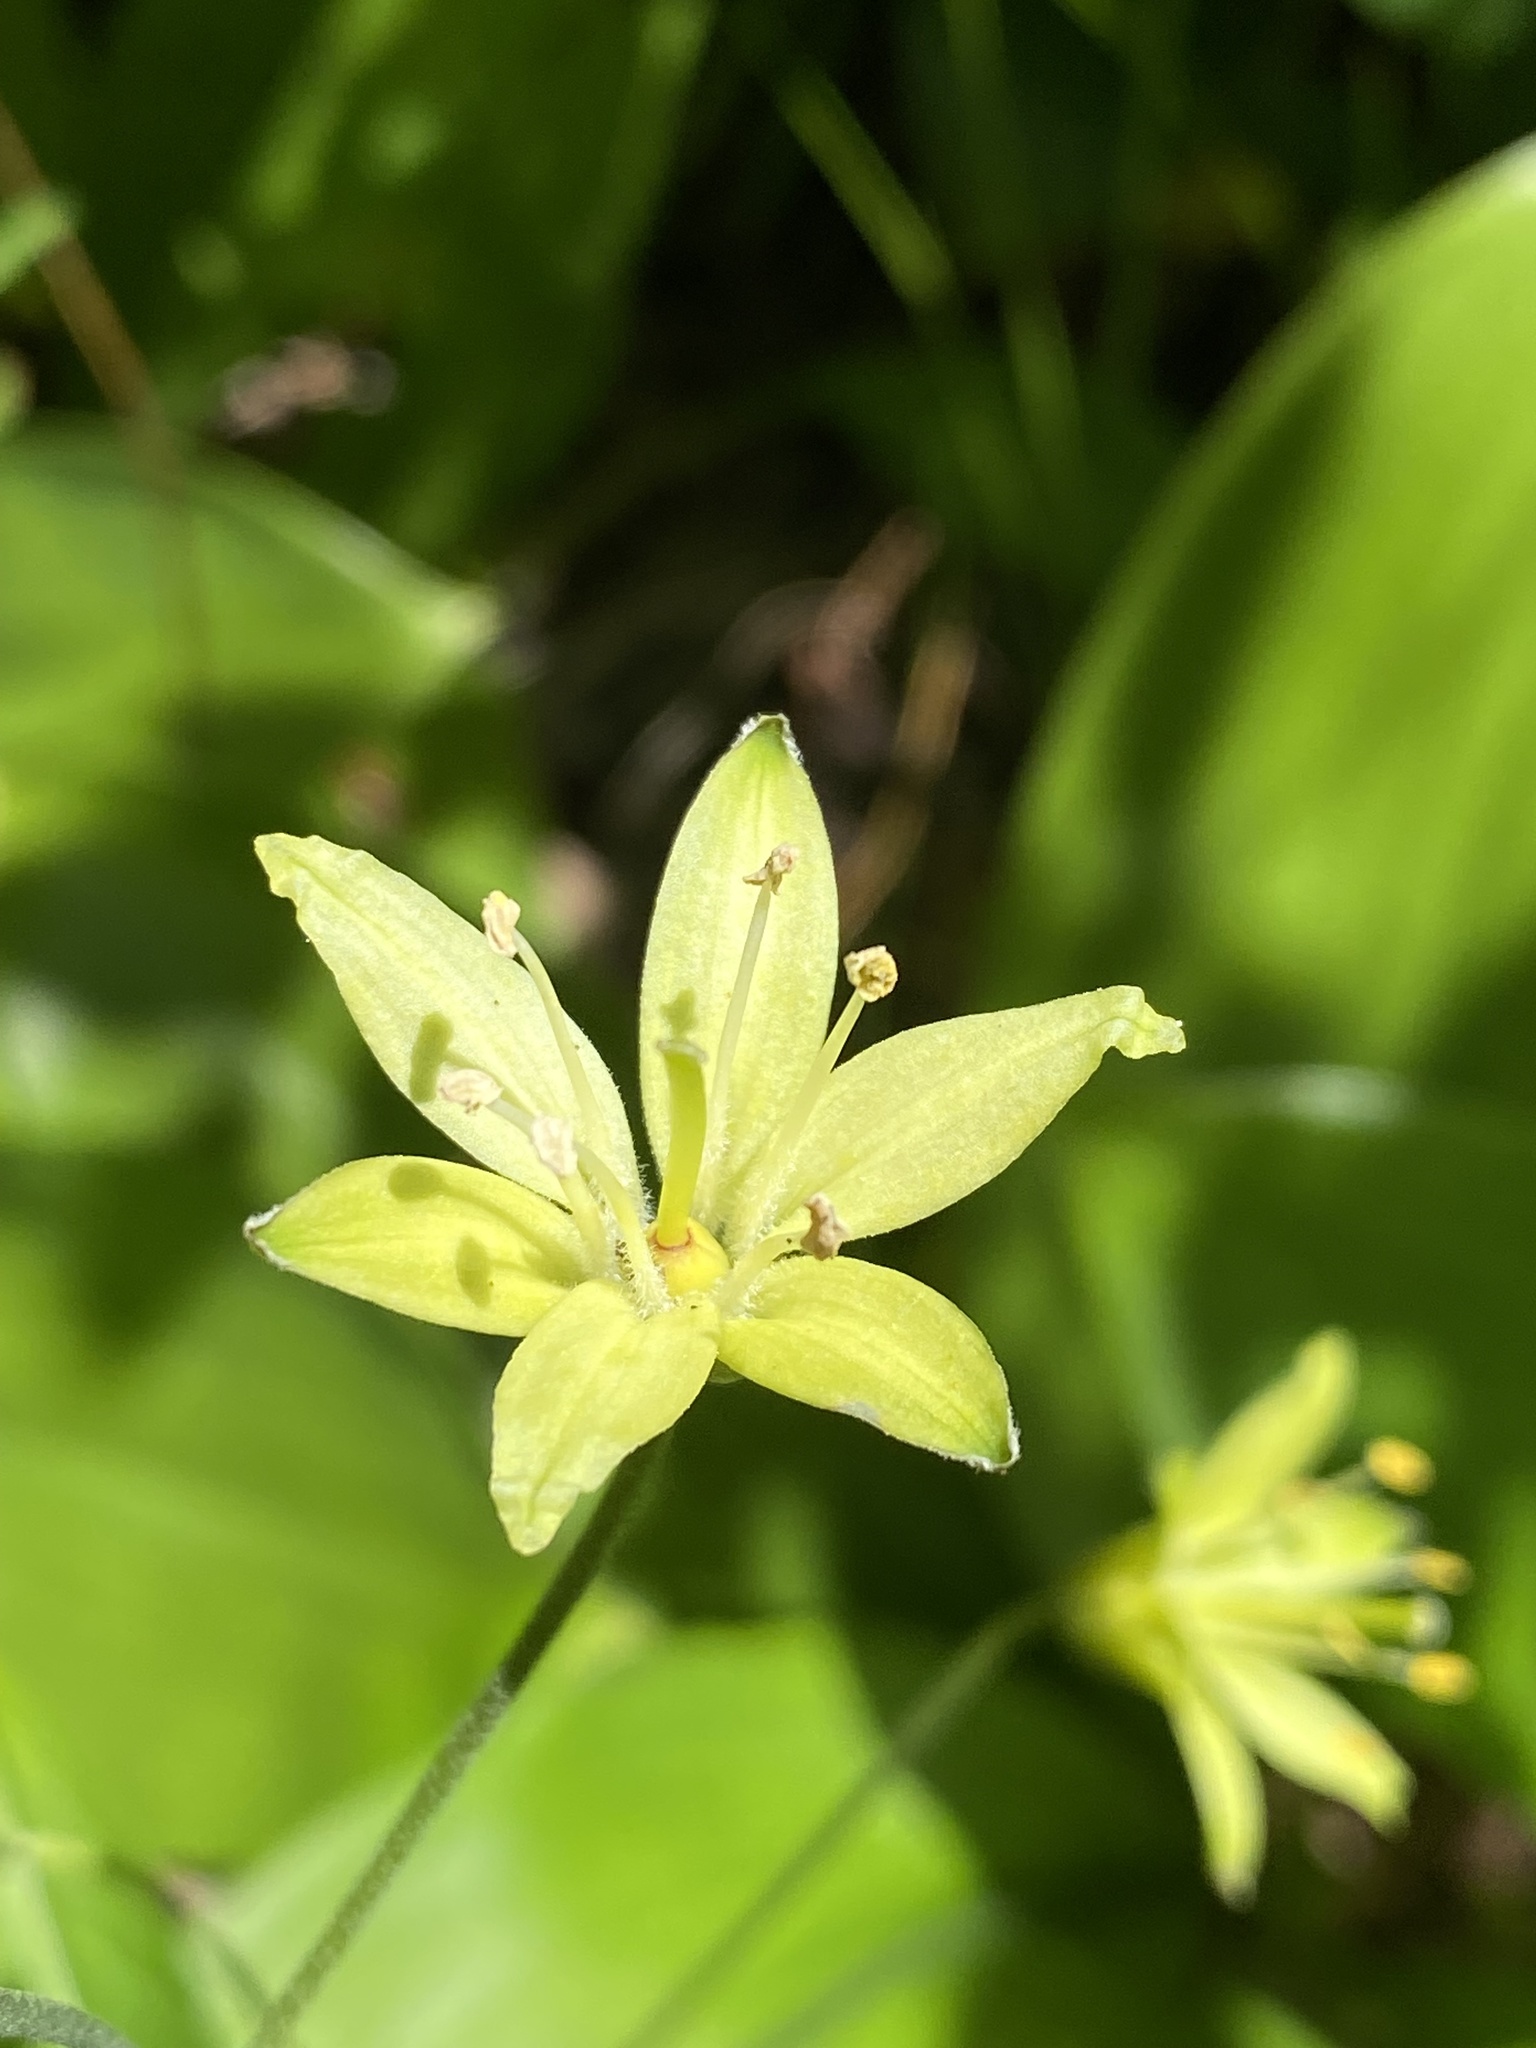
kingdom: Plantae
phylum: Tracheophyta
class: Liliopsida
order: Liliales
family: Liliaceae
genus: Clintonia
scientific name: Clintonia borealis
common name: Yellow clintonia
